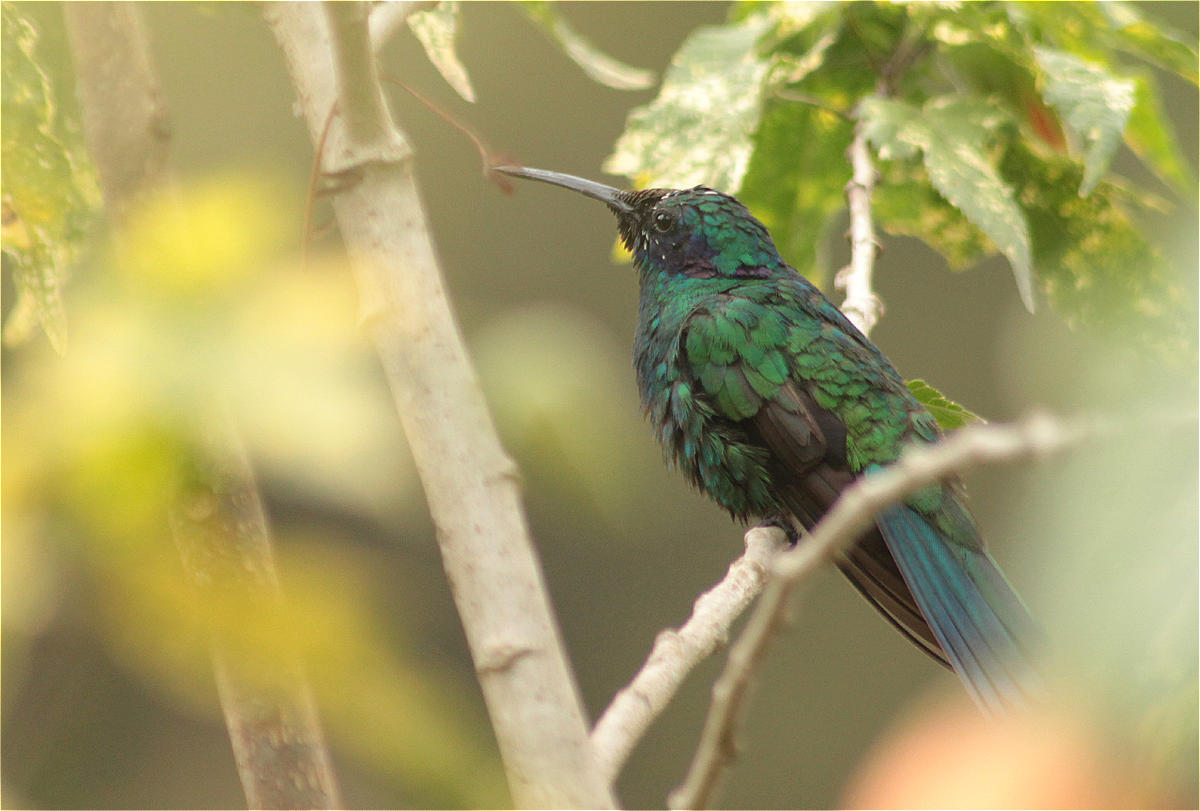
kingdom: Animalia
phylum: Chordata
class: Aves
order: Apodiformes
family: Trochilidae
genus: Colibri
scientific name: Colibri coruscans
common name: Sparkling violetear
